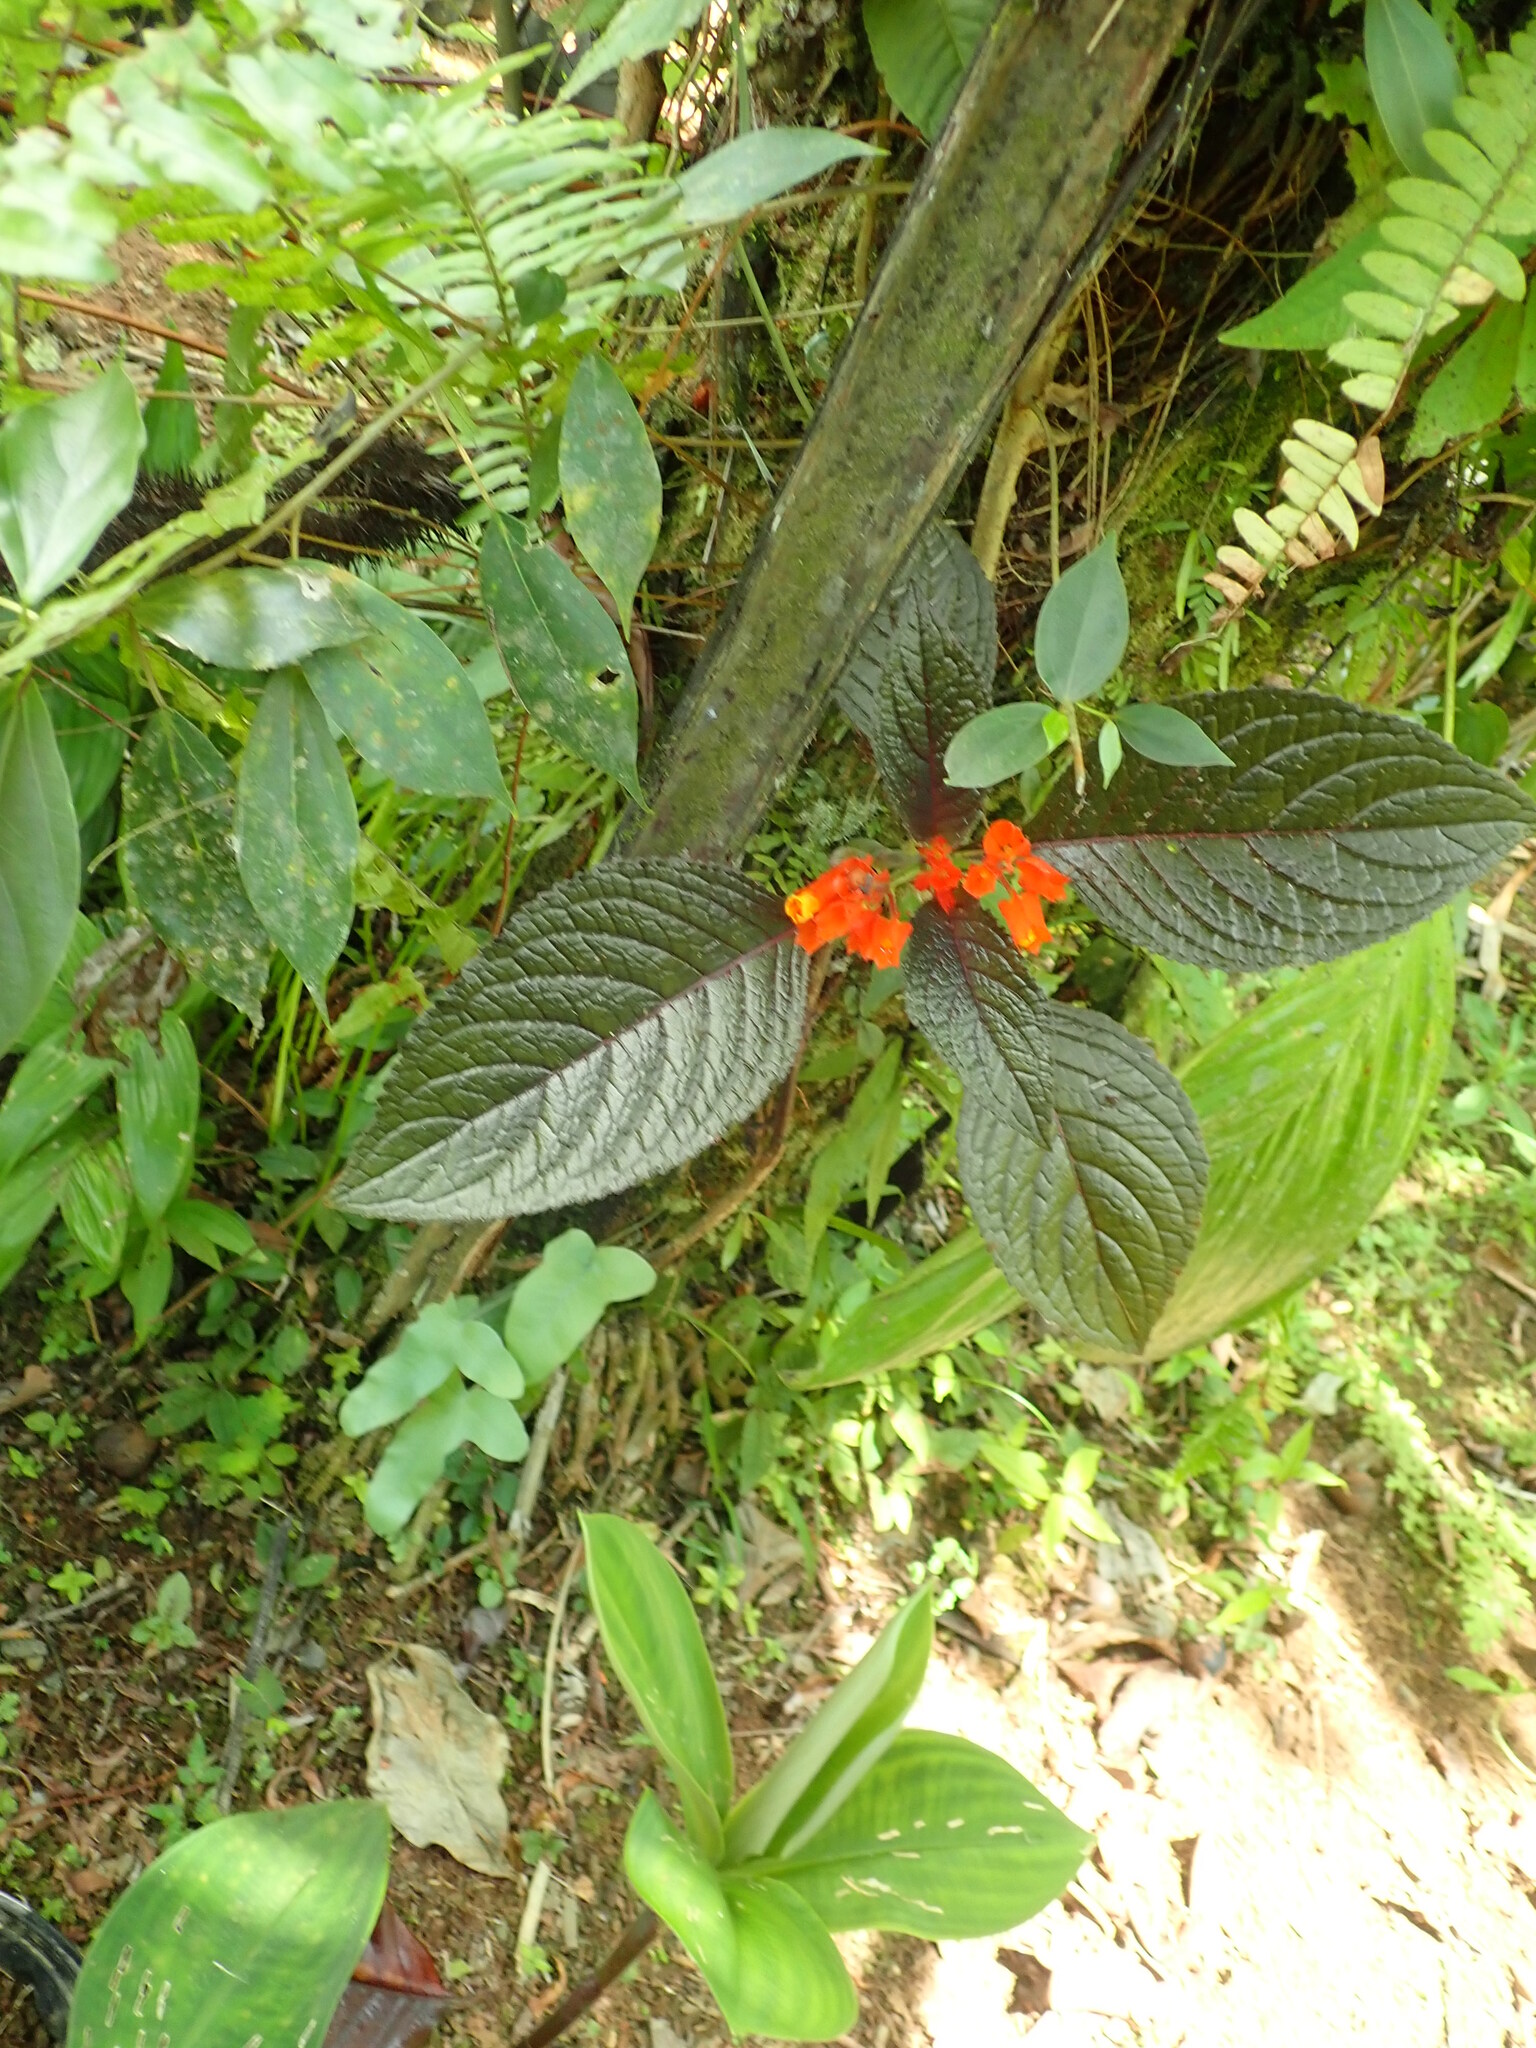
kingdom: Plantae
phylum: Tracheophyta
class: Magnoliopsida
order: Lamiales
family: Gesneriaceae
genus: Chrysothemis
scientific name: Chrysothemis pulchella
